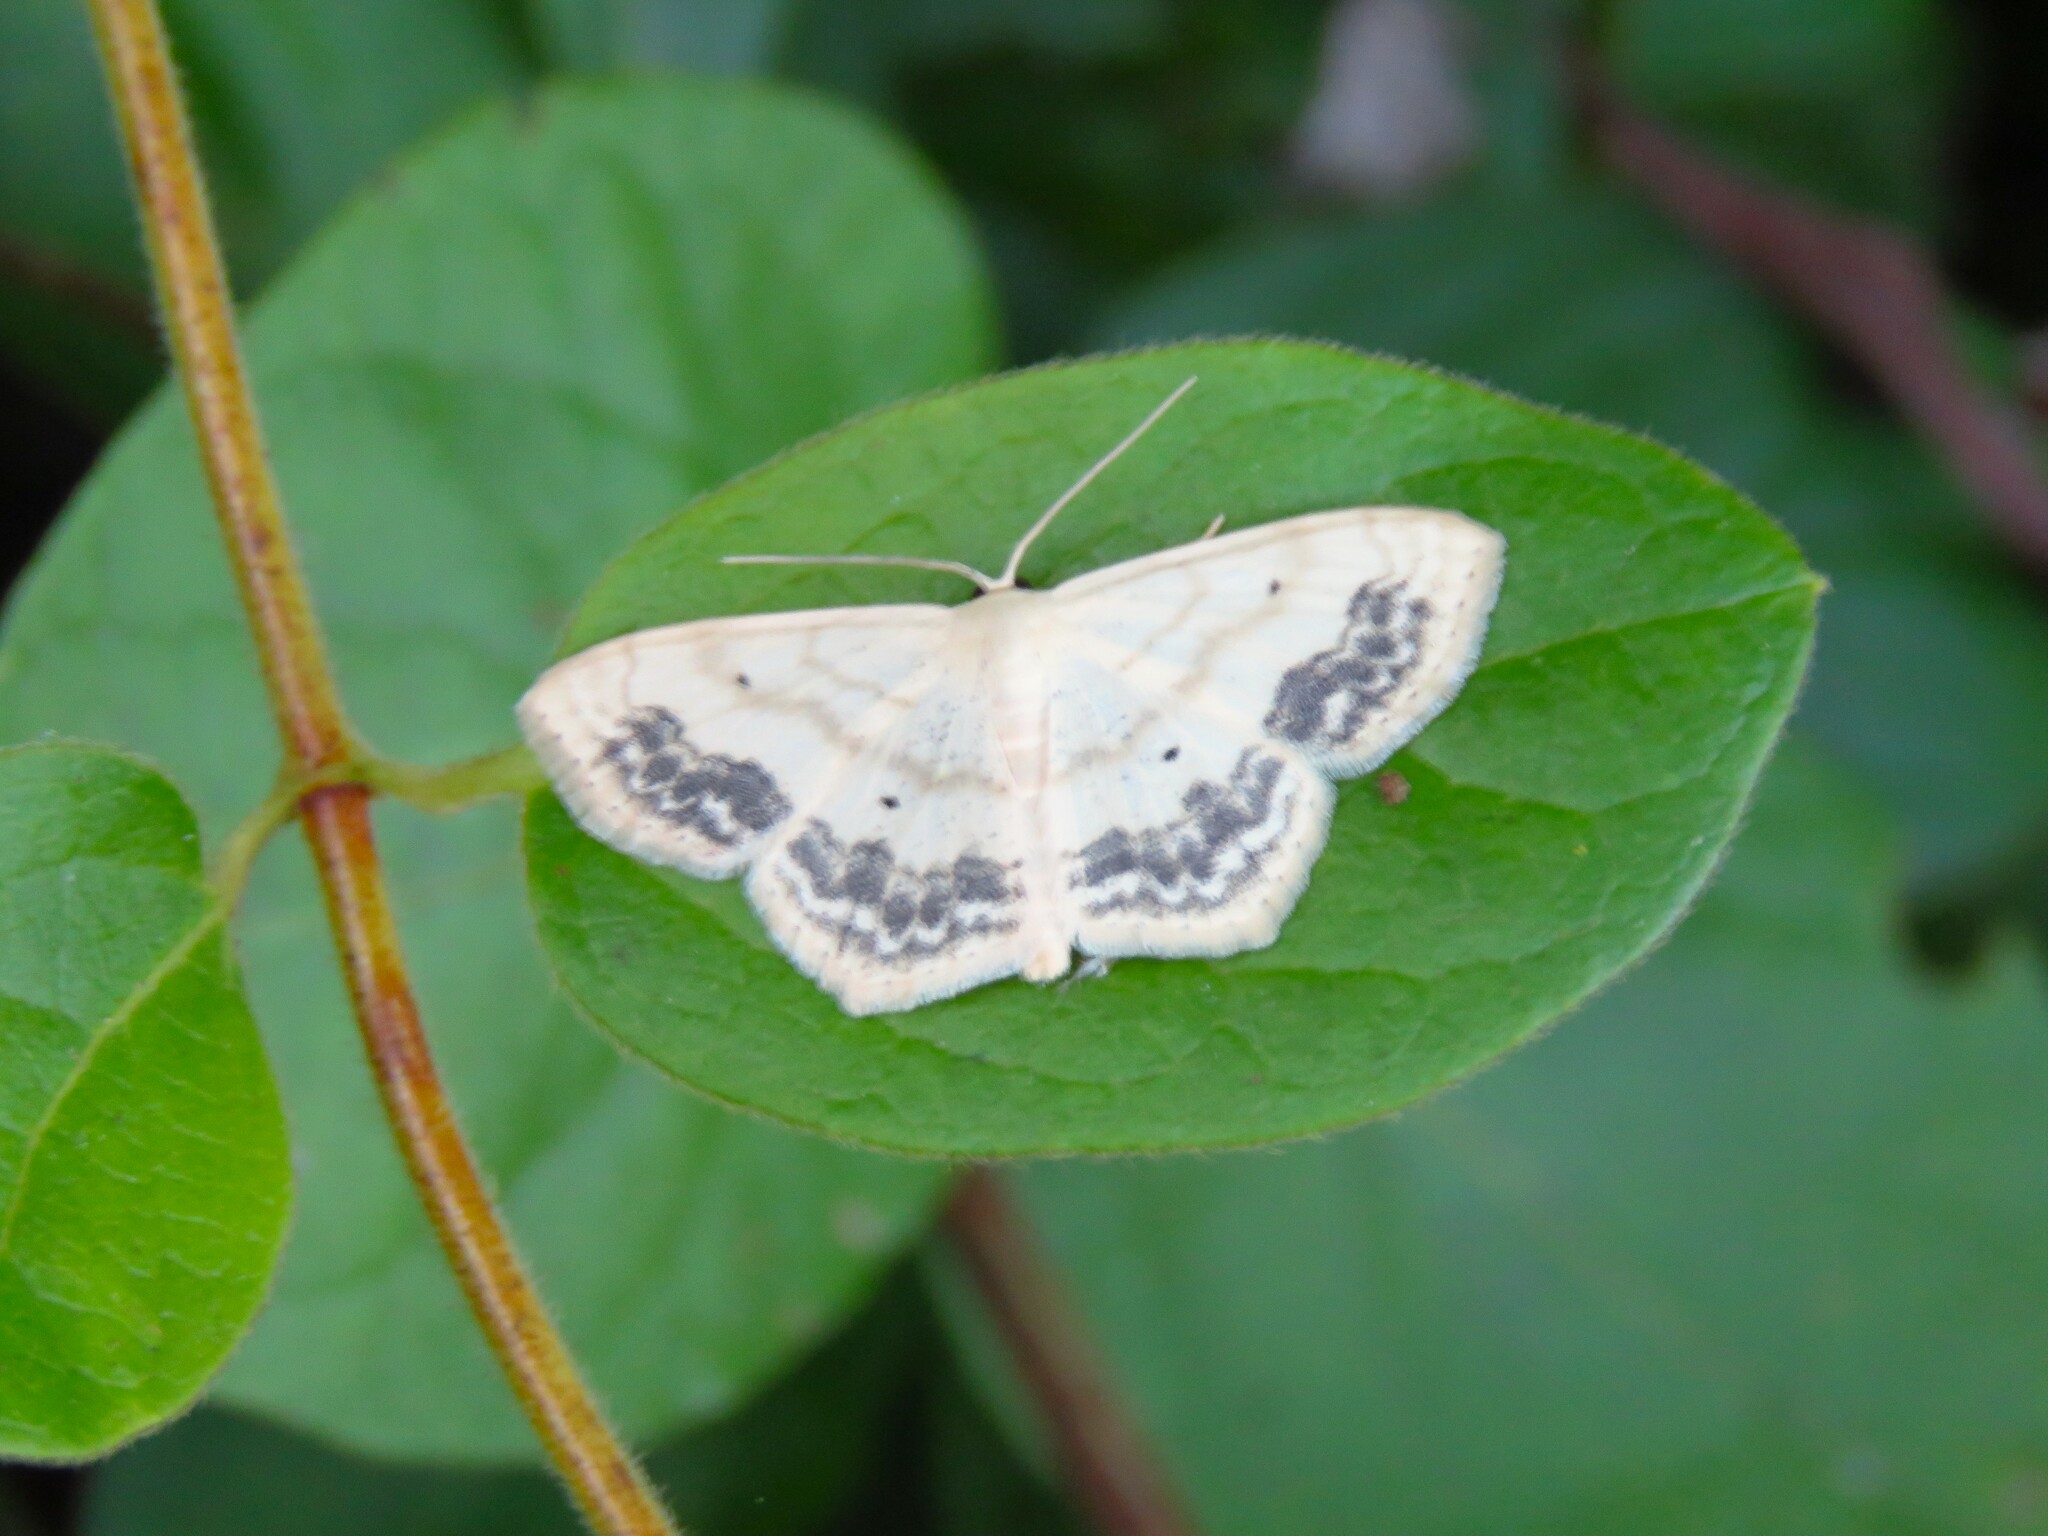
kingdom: Animalia
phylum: Arthropoda
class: Insecta
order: Lepidoptera
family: Geometridae
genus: Scopula
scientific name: Scopula limboundata
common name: Large lace border
